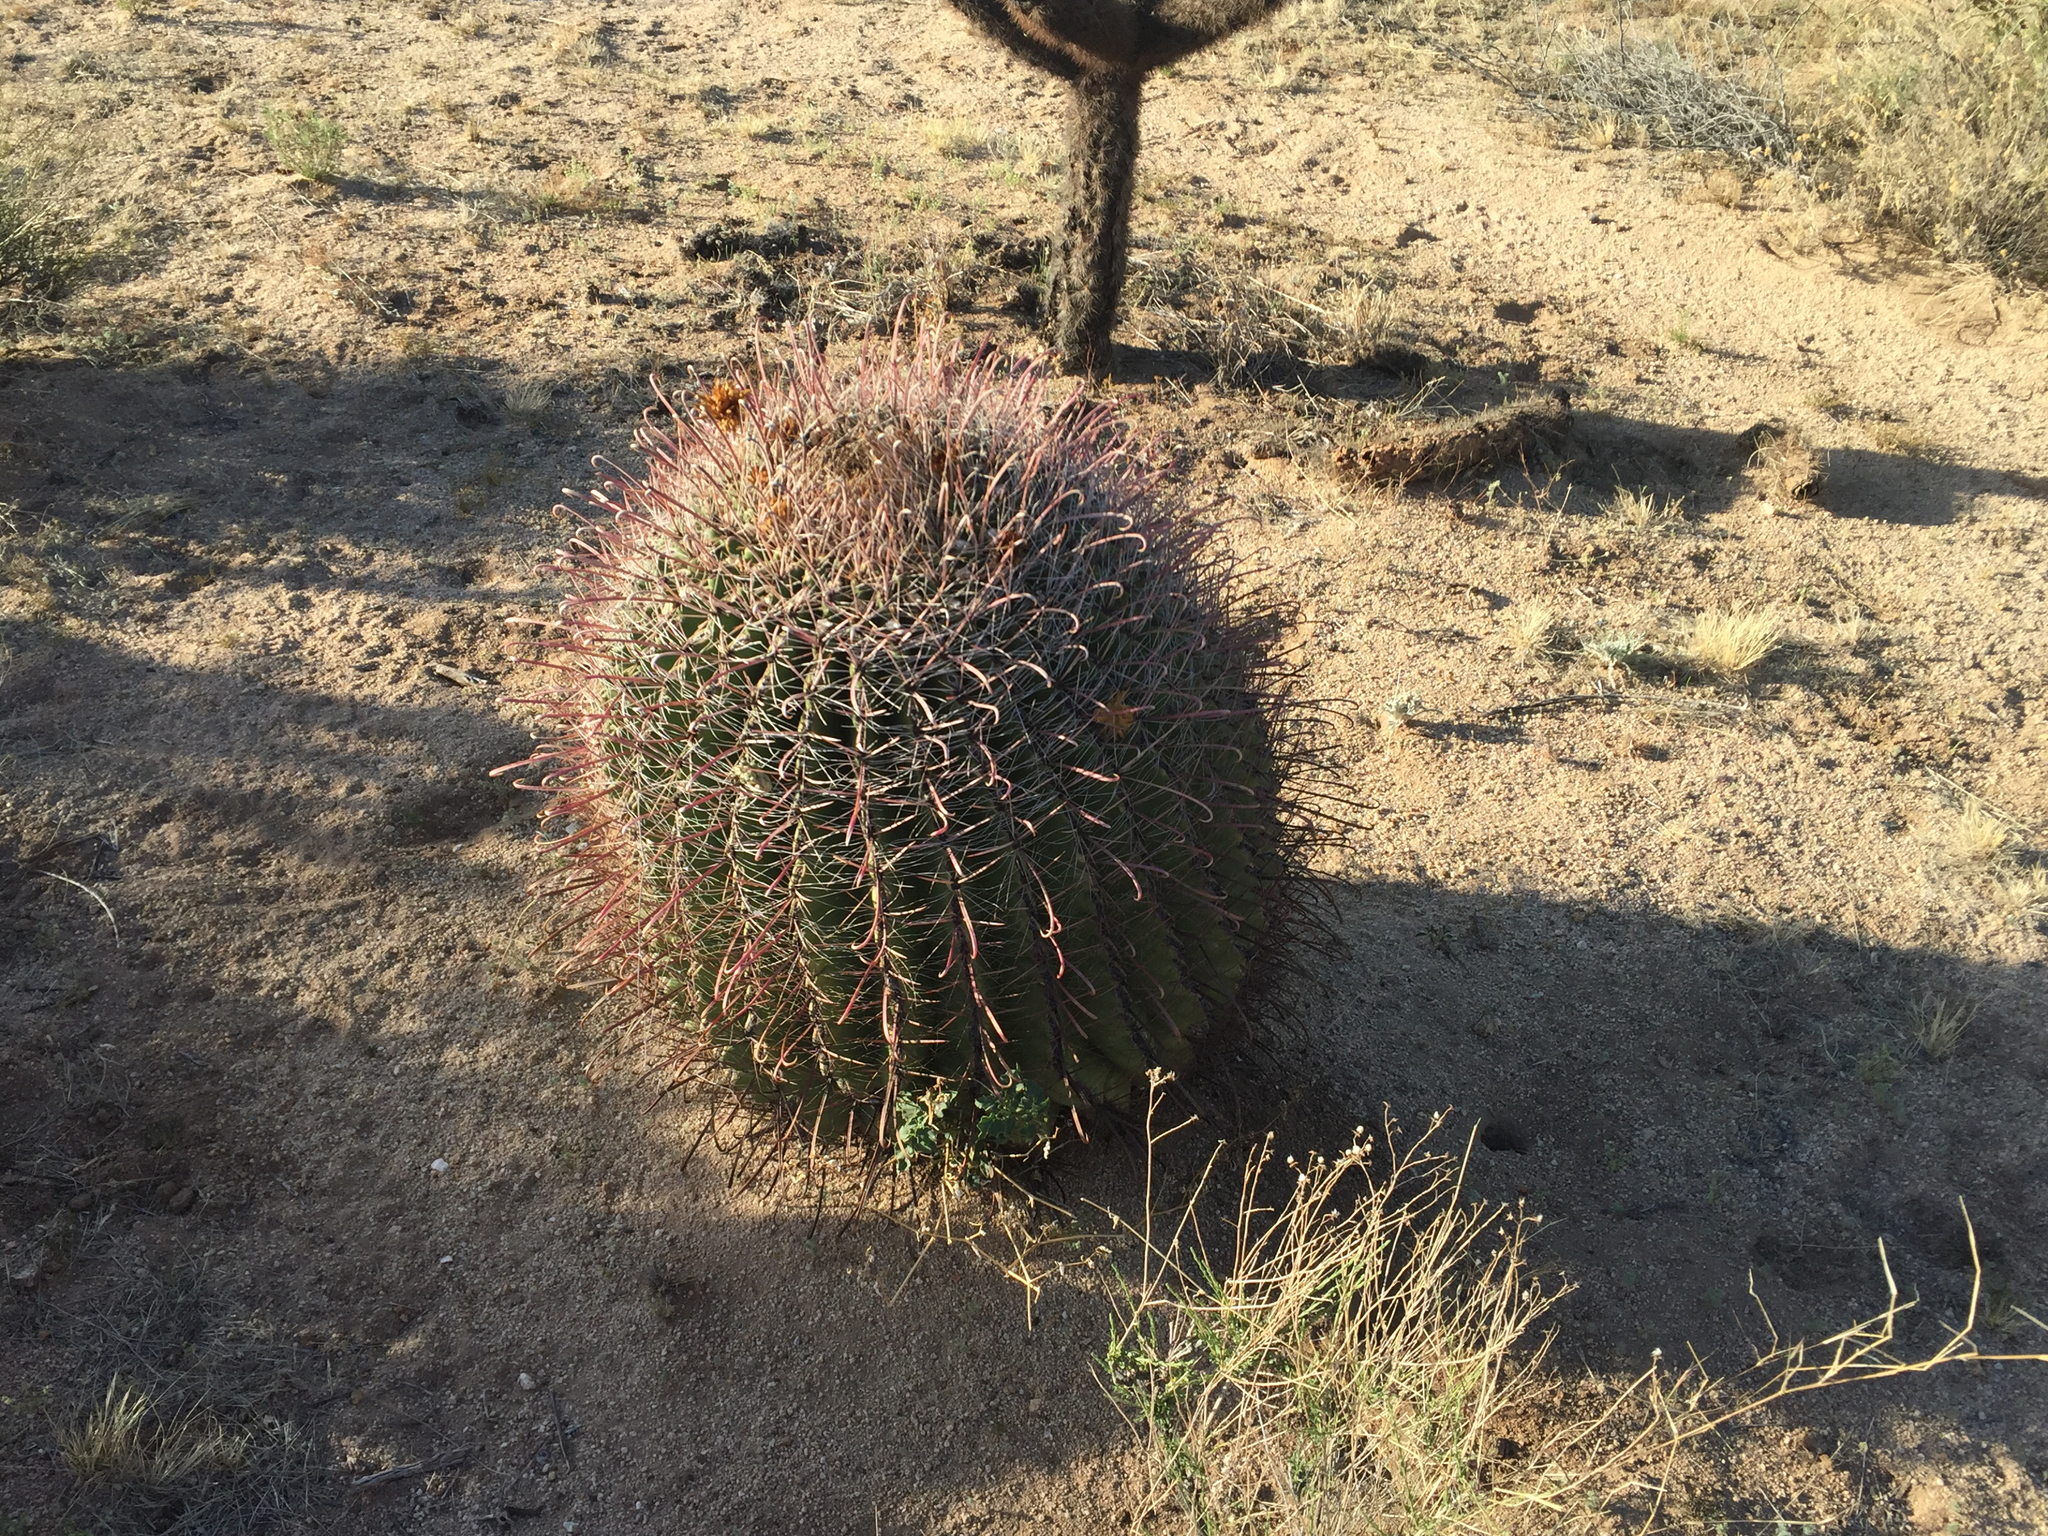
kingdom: Plantae
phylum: Tracheophyta
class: Magnoliopsida
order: Caryophyllales
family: Cactaceae
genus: Ferocactus
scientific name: Ferocactus wislizeni
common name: Candy barrel cactus
